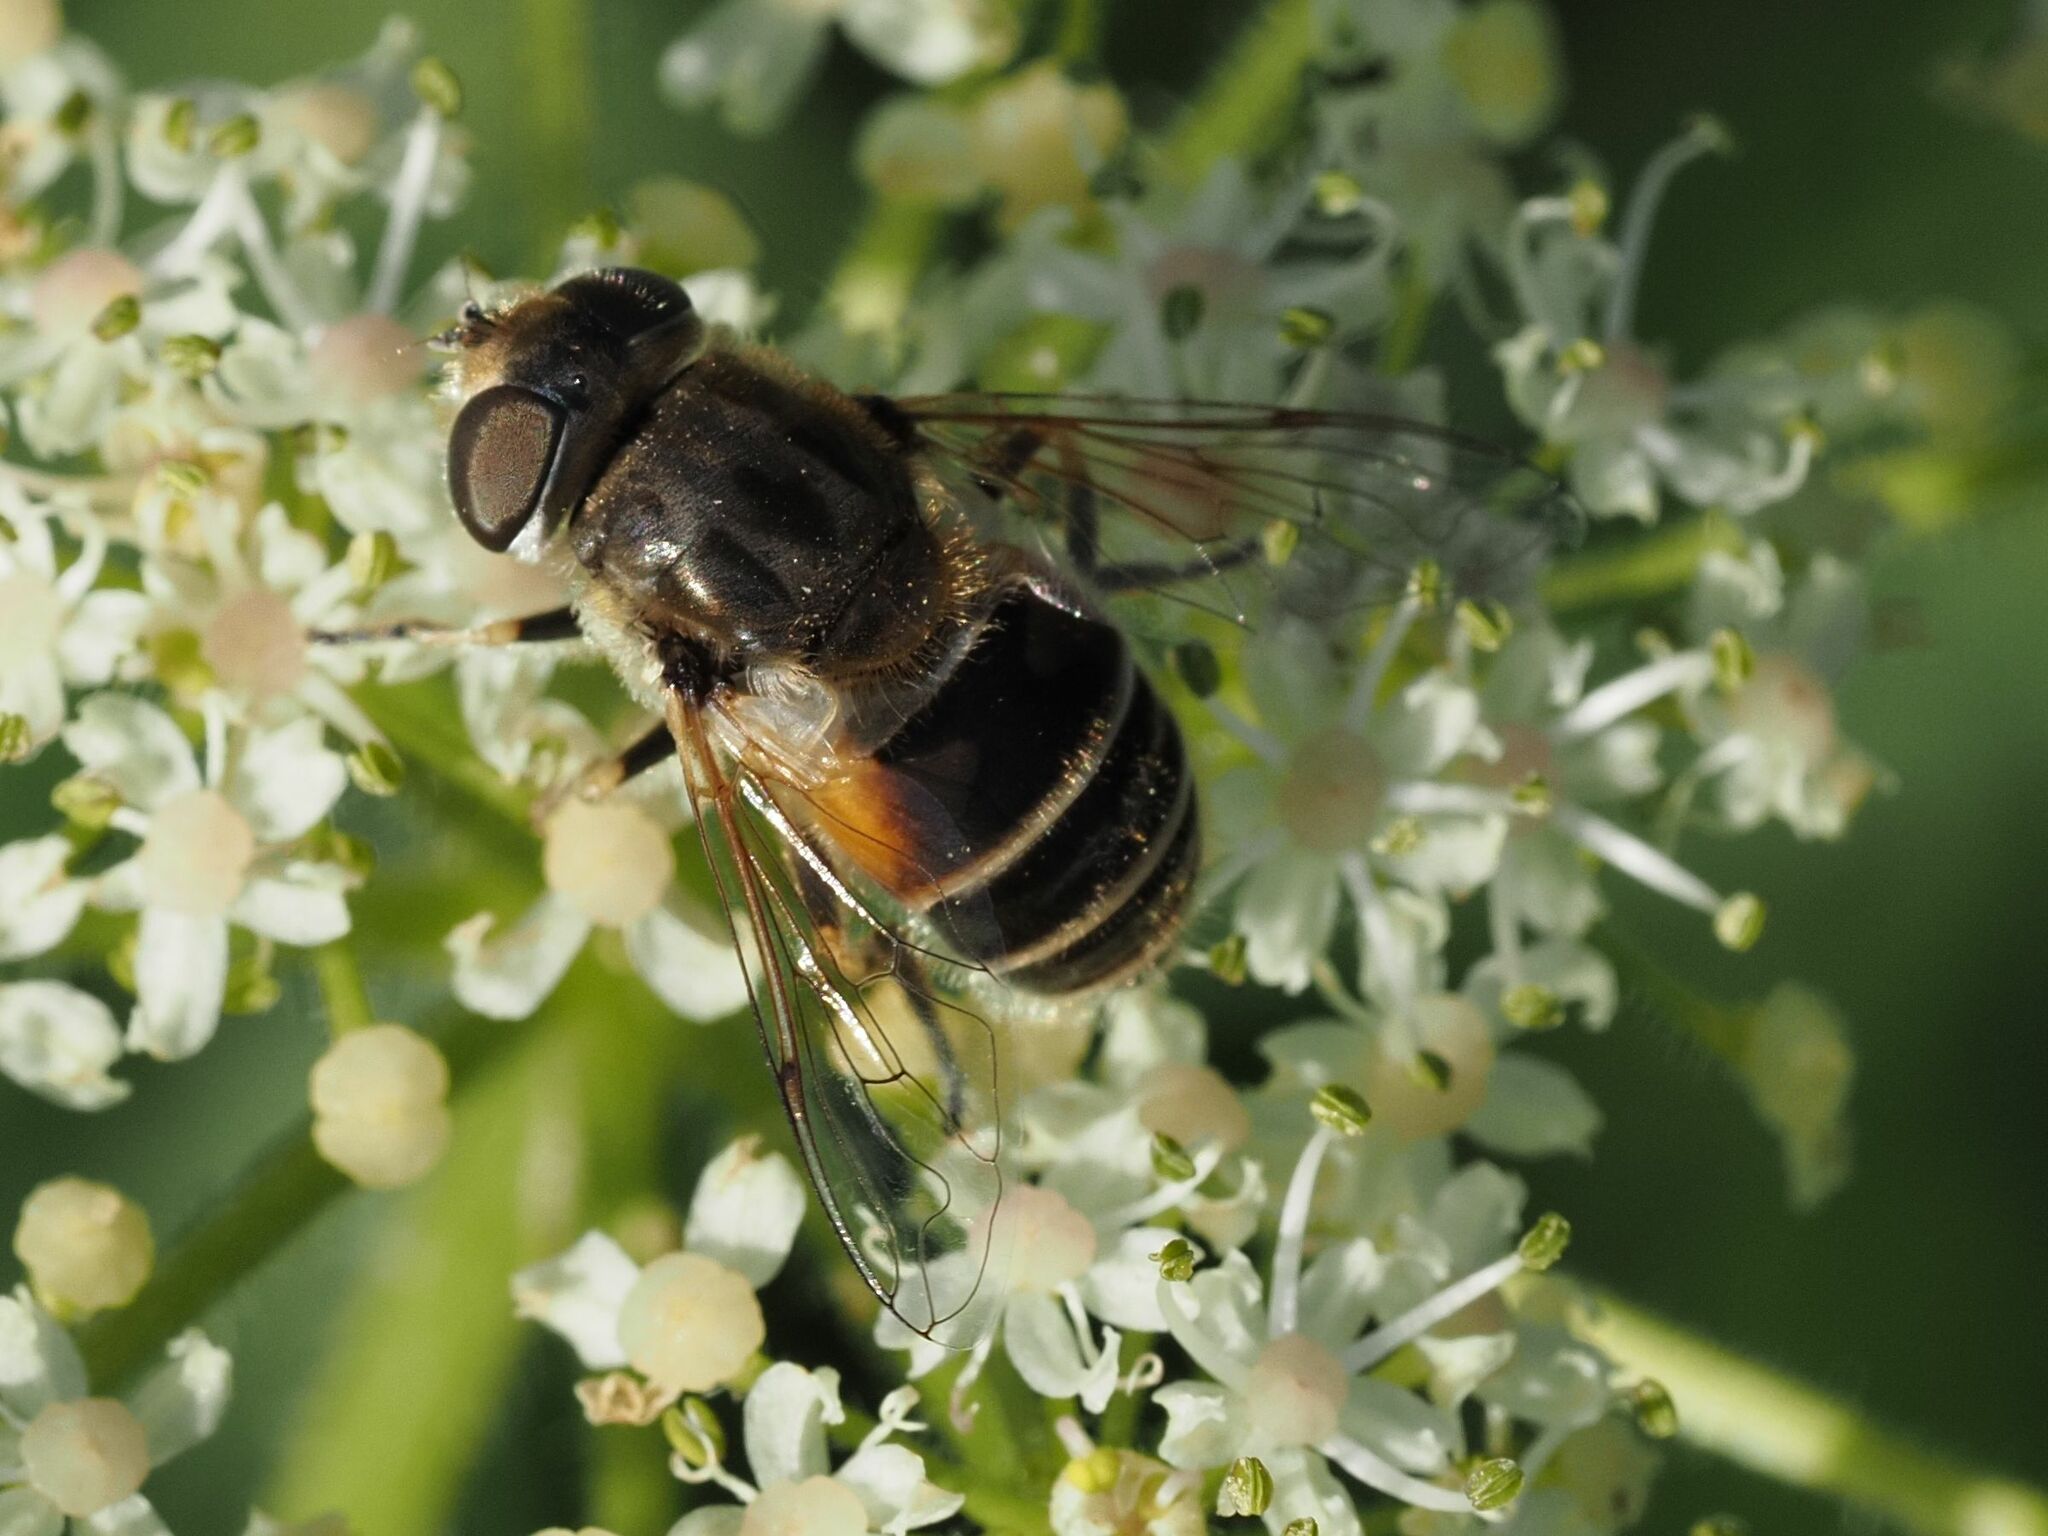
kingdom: Animalia
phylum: Arthropoda
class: Insecta
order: Diptera
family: Syrphidae
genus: Eristalis
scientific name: Eristalis arbustorum
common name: Hover fly
